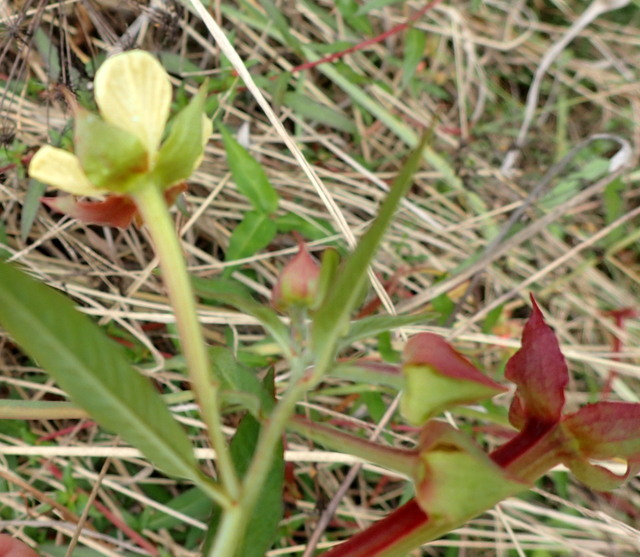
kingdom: Plantae
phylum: Tracheophyta
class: Magnoliopsida
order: Myrtales
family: Onagraceae
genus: Ludwigia
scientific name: Ludwigia octovalvis
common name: Water-primrose
